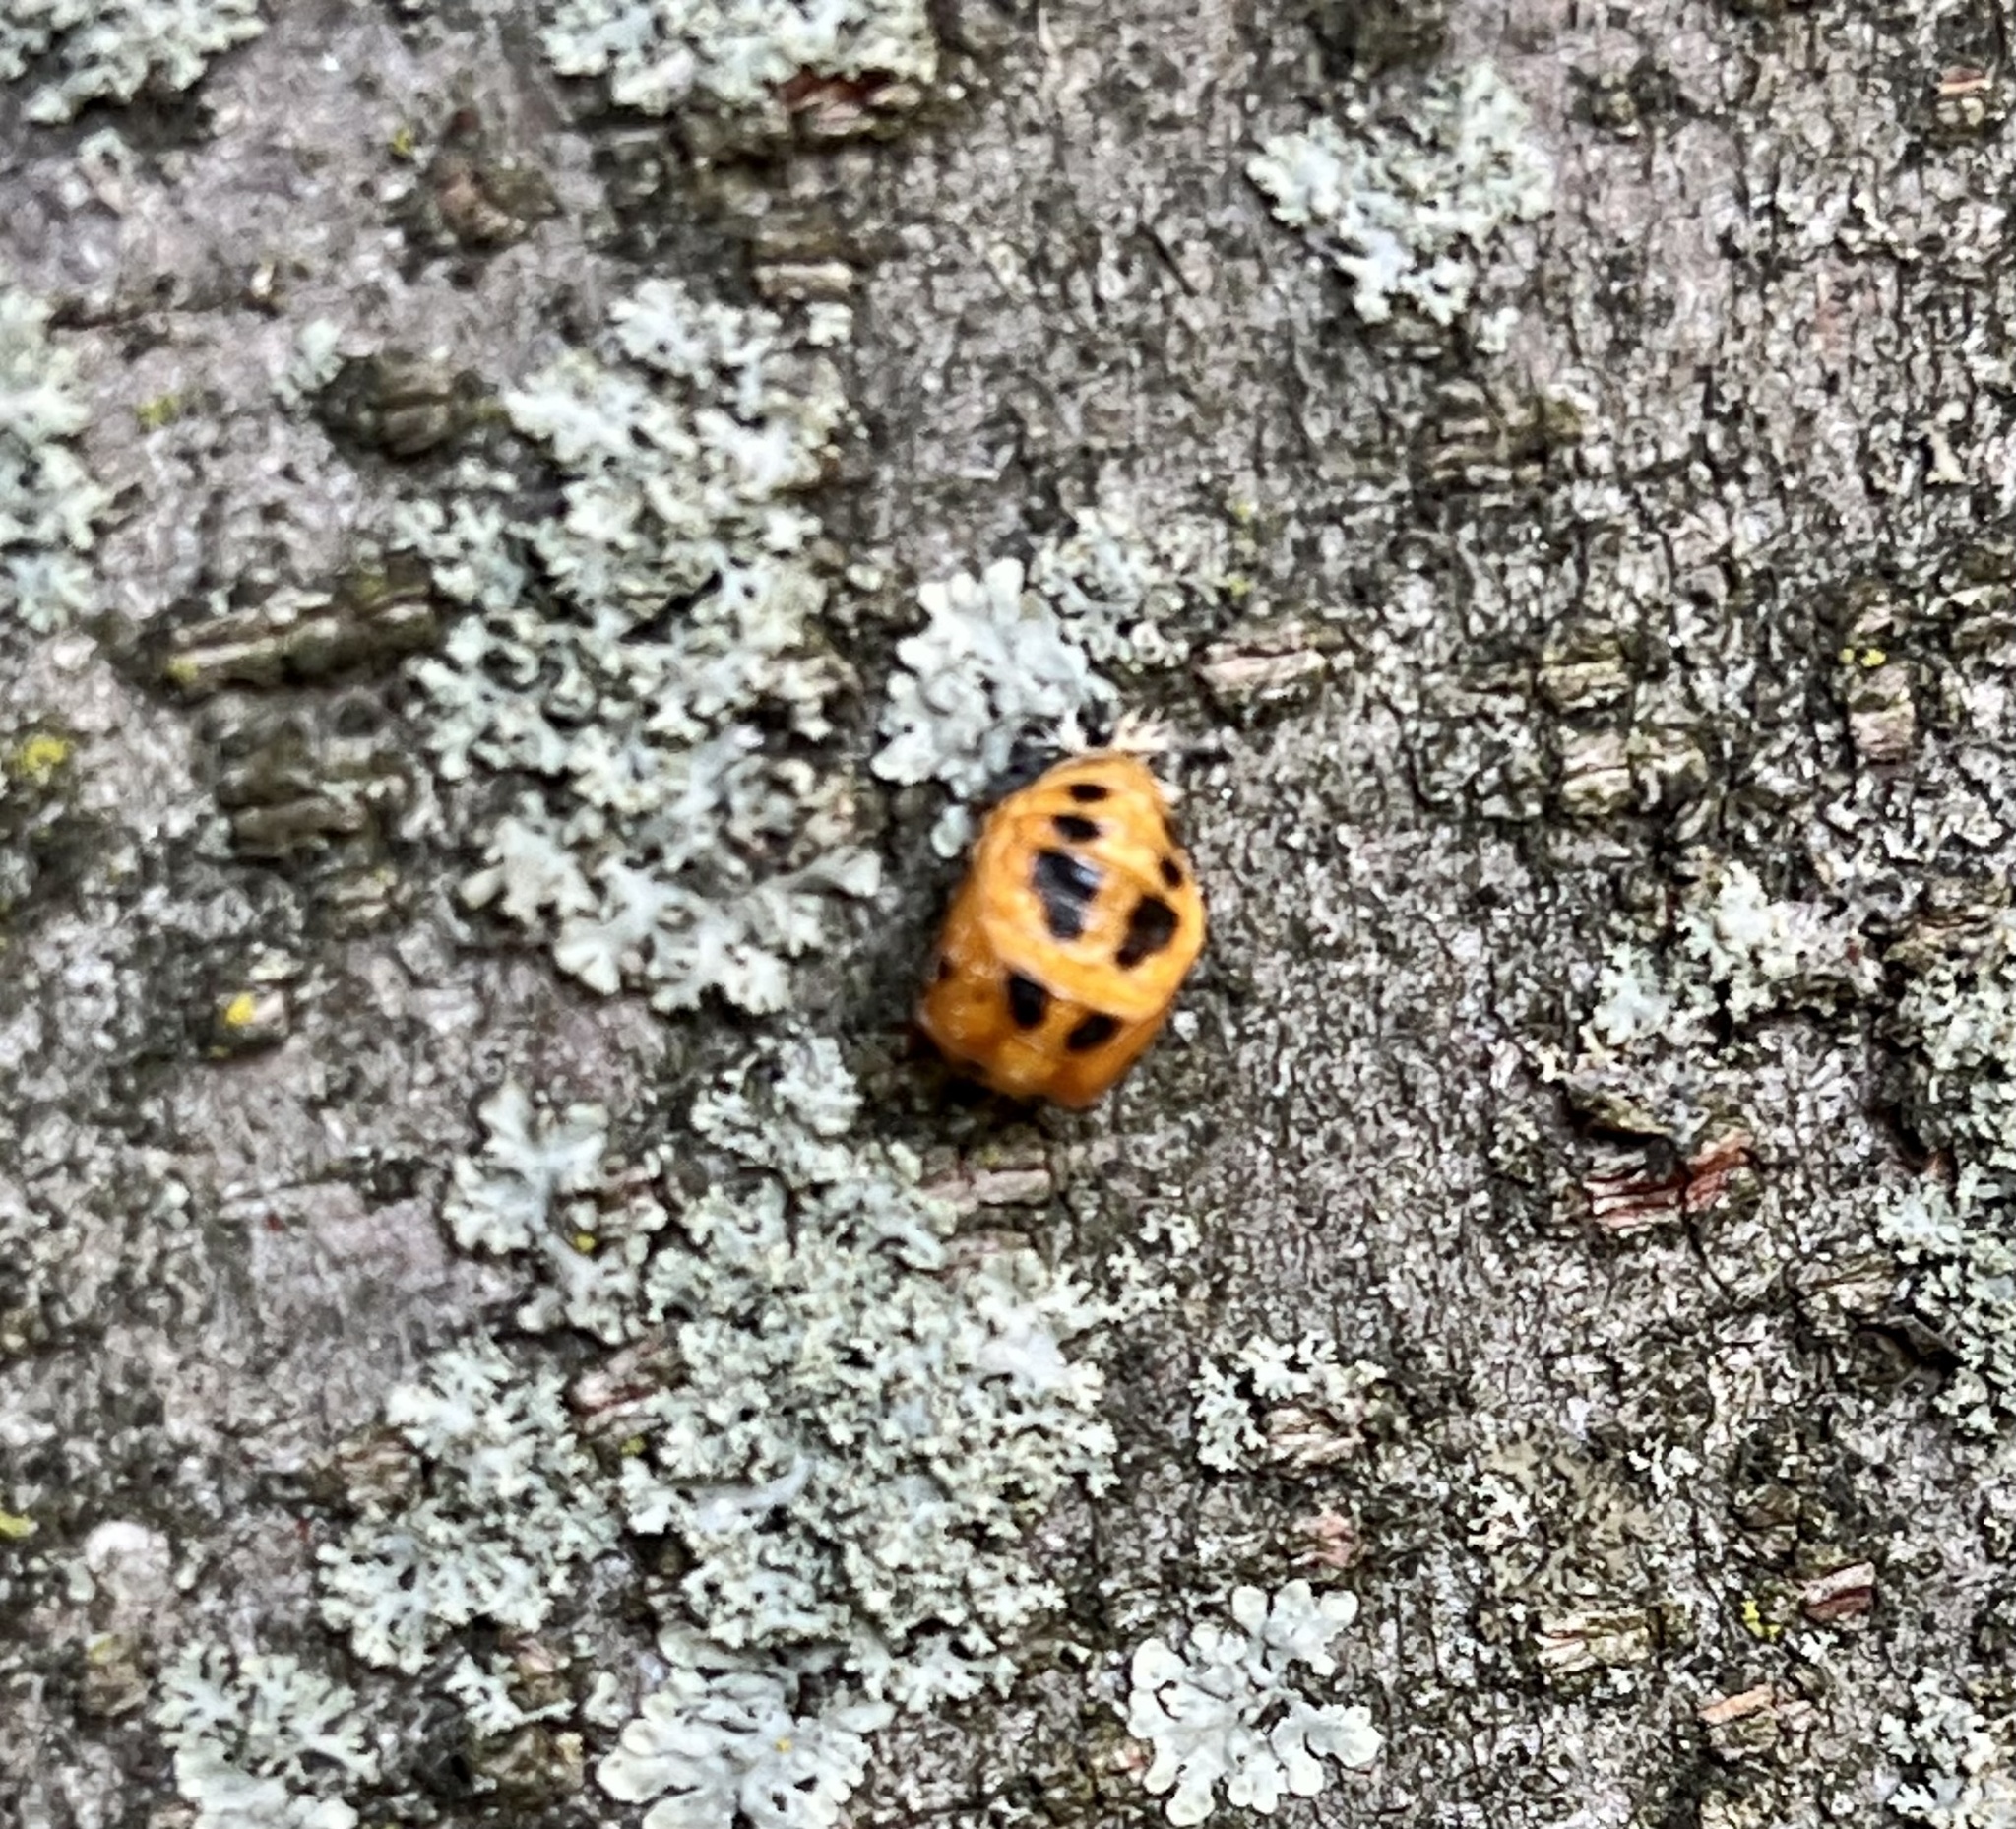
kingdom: Animalia
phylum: Arthropoda
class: Insecta
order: Coleoptera
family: Coccinellidae
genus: Harmonia
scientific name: Harmonia axyridis
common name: Harlequin ladybird
